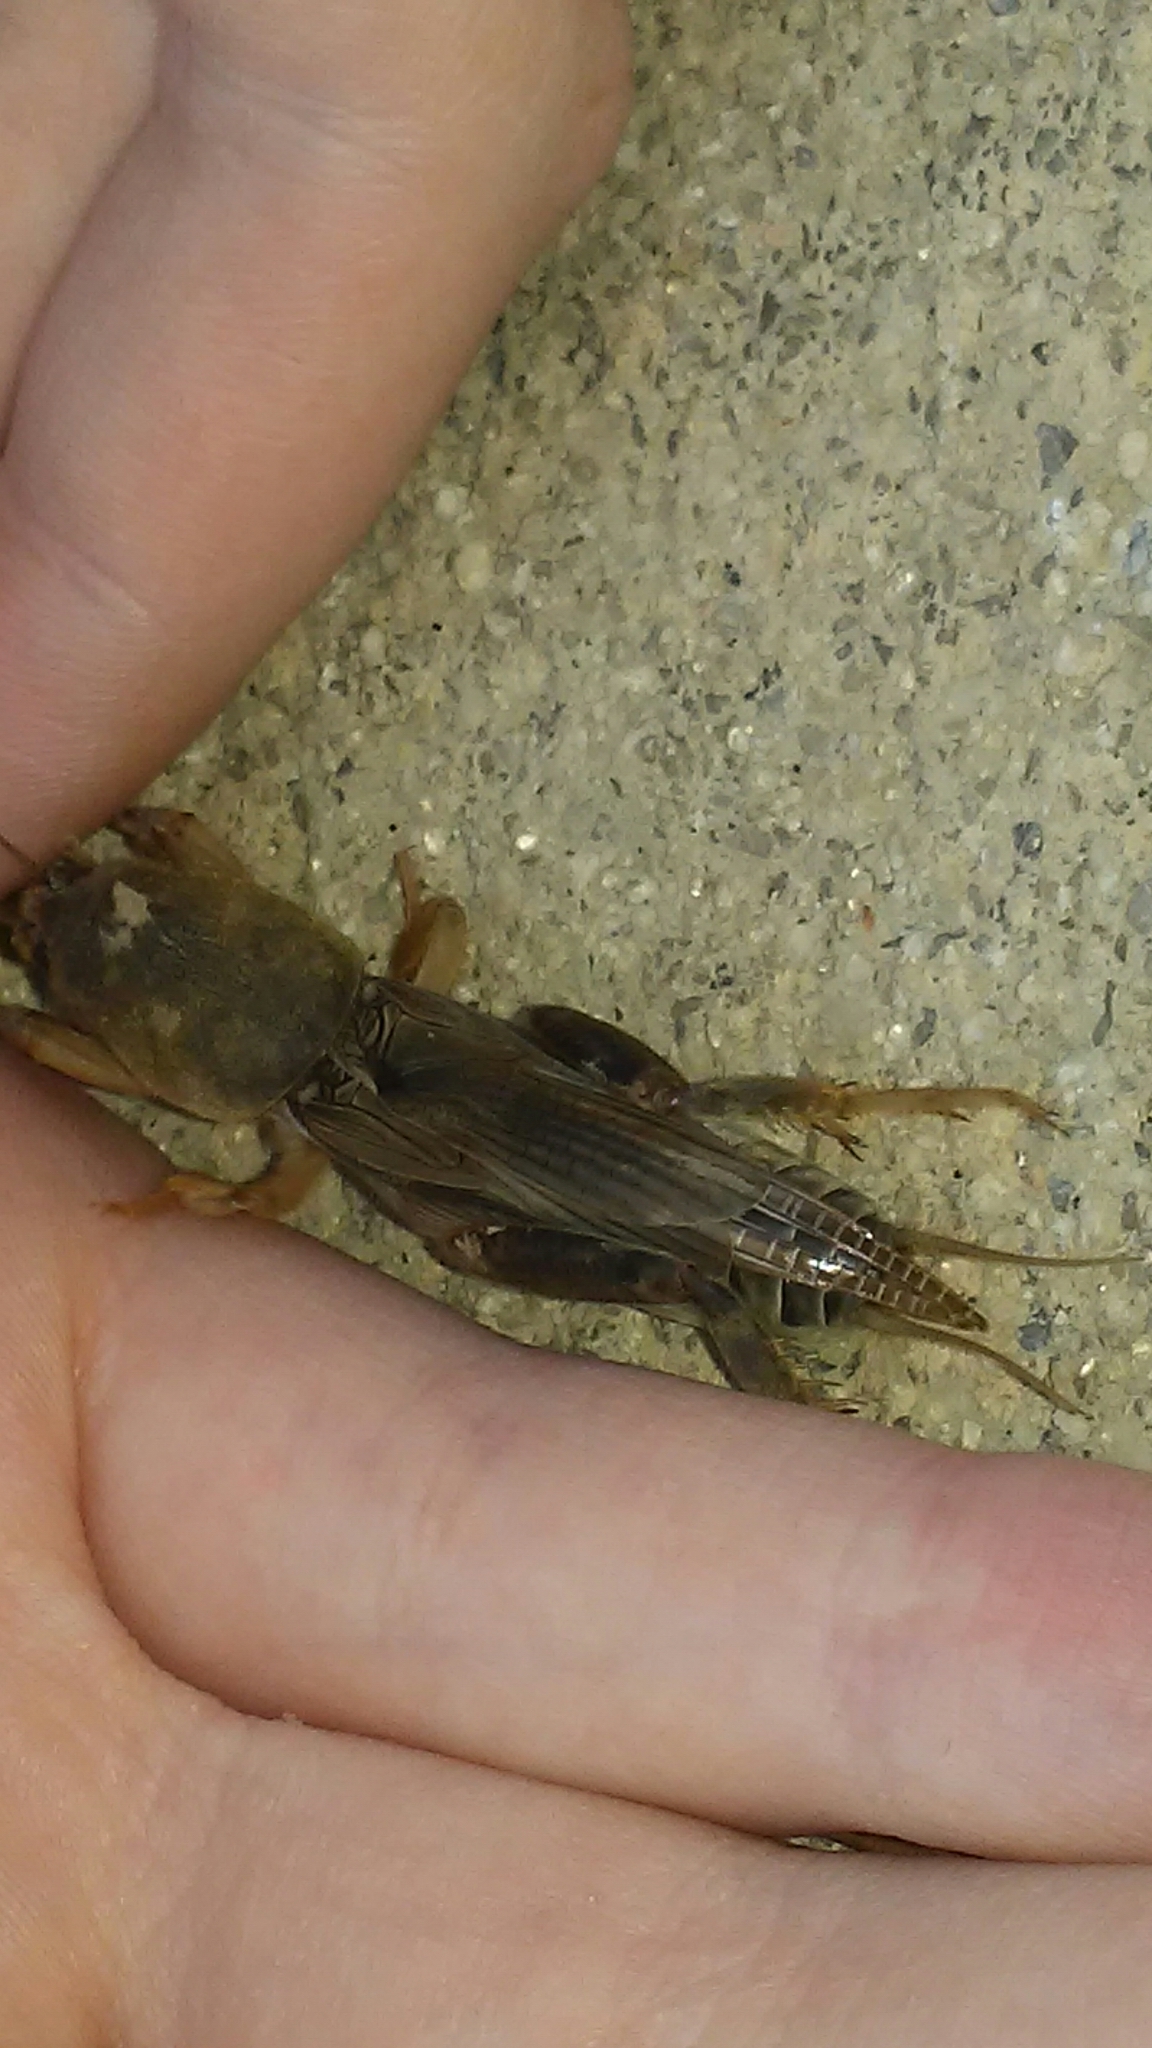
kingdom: Animalia
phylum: Arthropoda
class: Insecta
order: Orthoptera
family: Gryllotalpidae
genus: Neoscapteriscus
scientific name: Neoscapteriscus borellii
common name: Southern mole cricket
